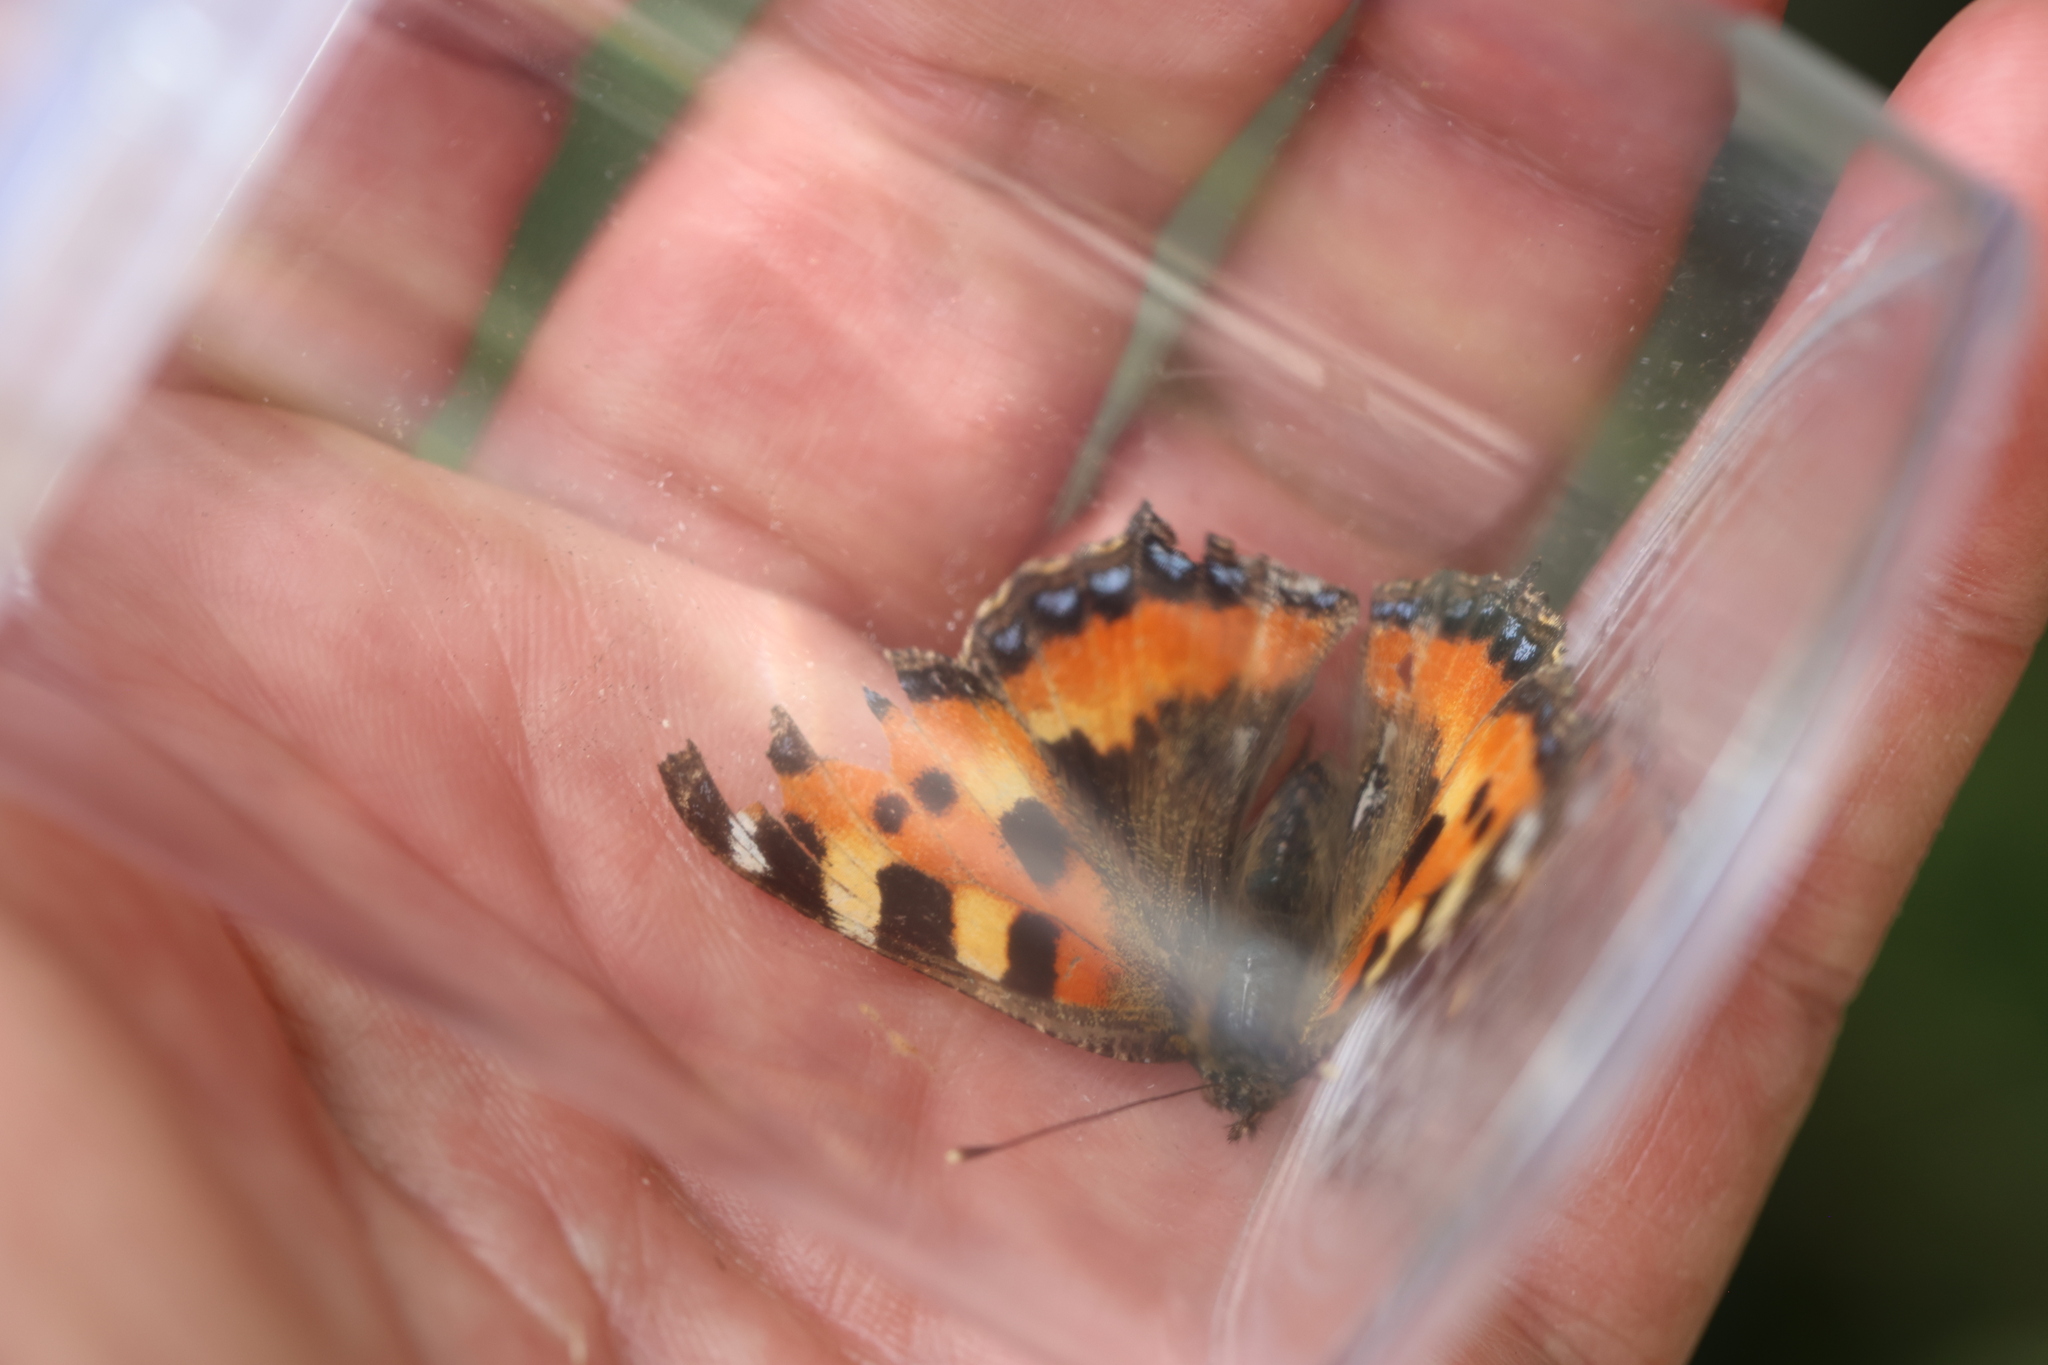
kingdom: Animalia
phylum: Arthropoda
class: Insecta
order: Lepidoptera
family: Nymphalidae
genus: Aglais
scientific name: Aglais urticae
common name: Small tortoiseshell
